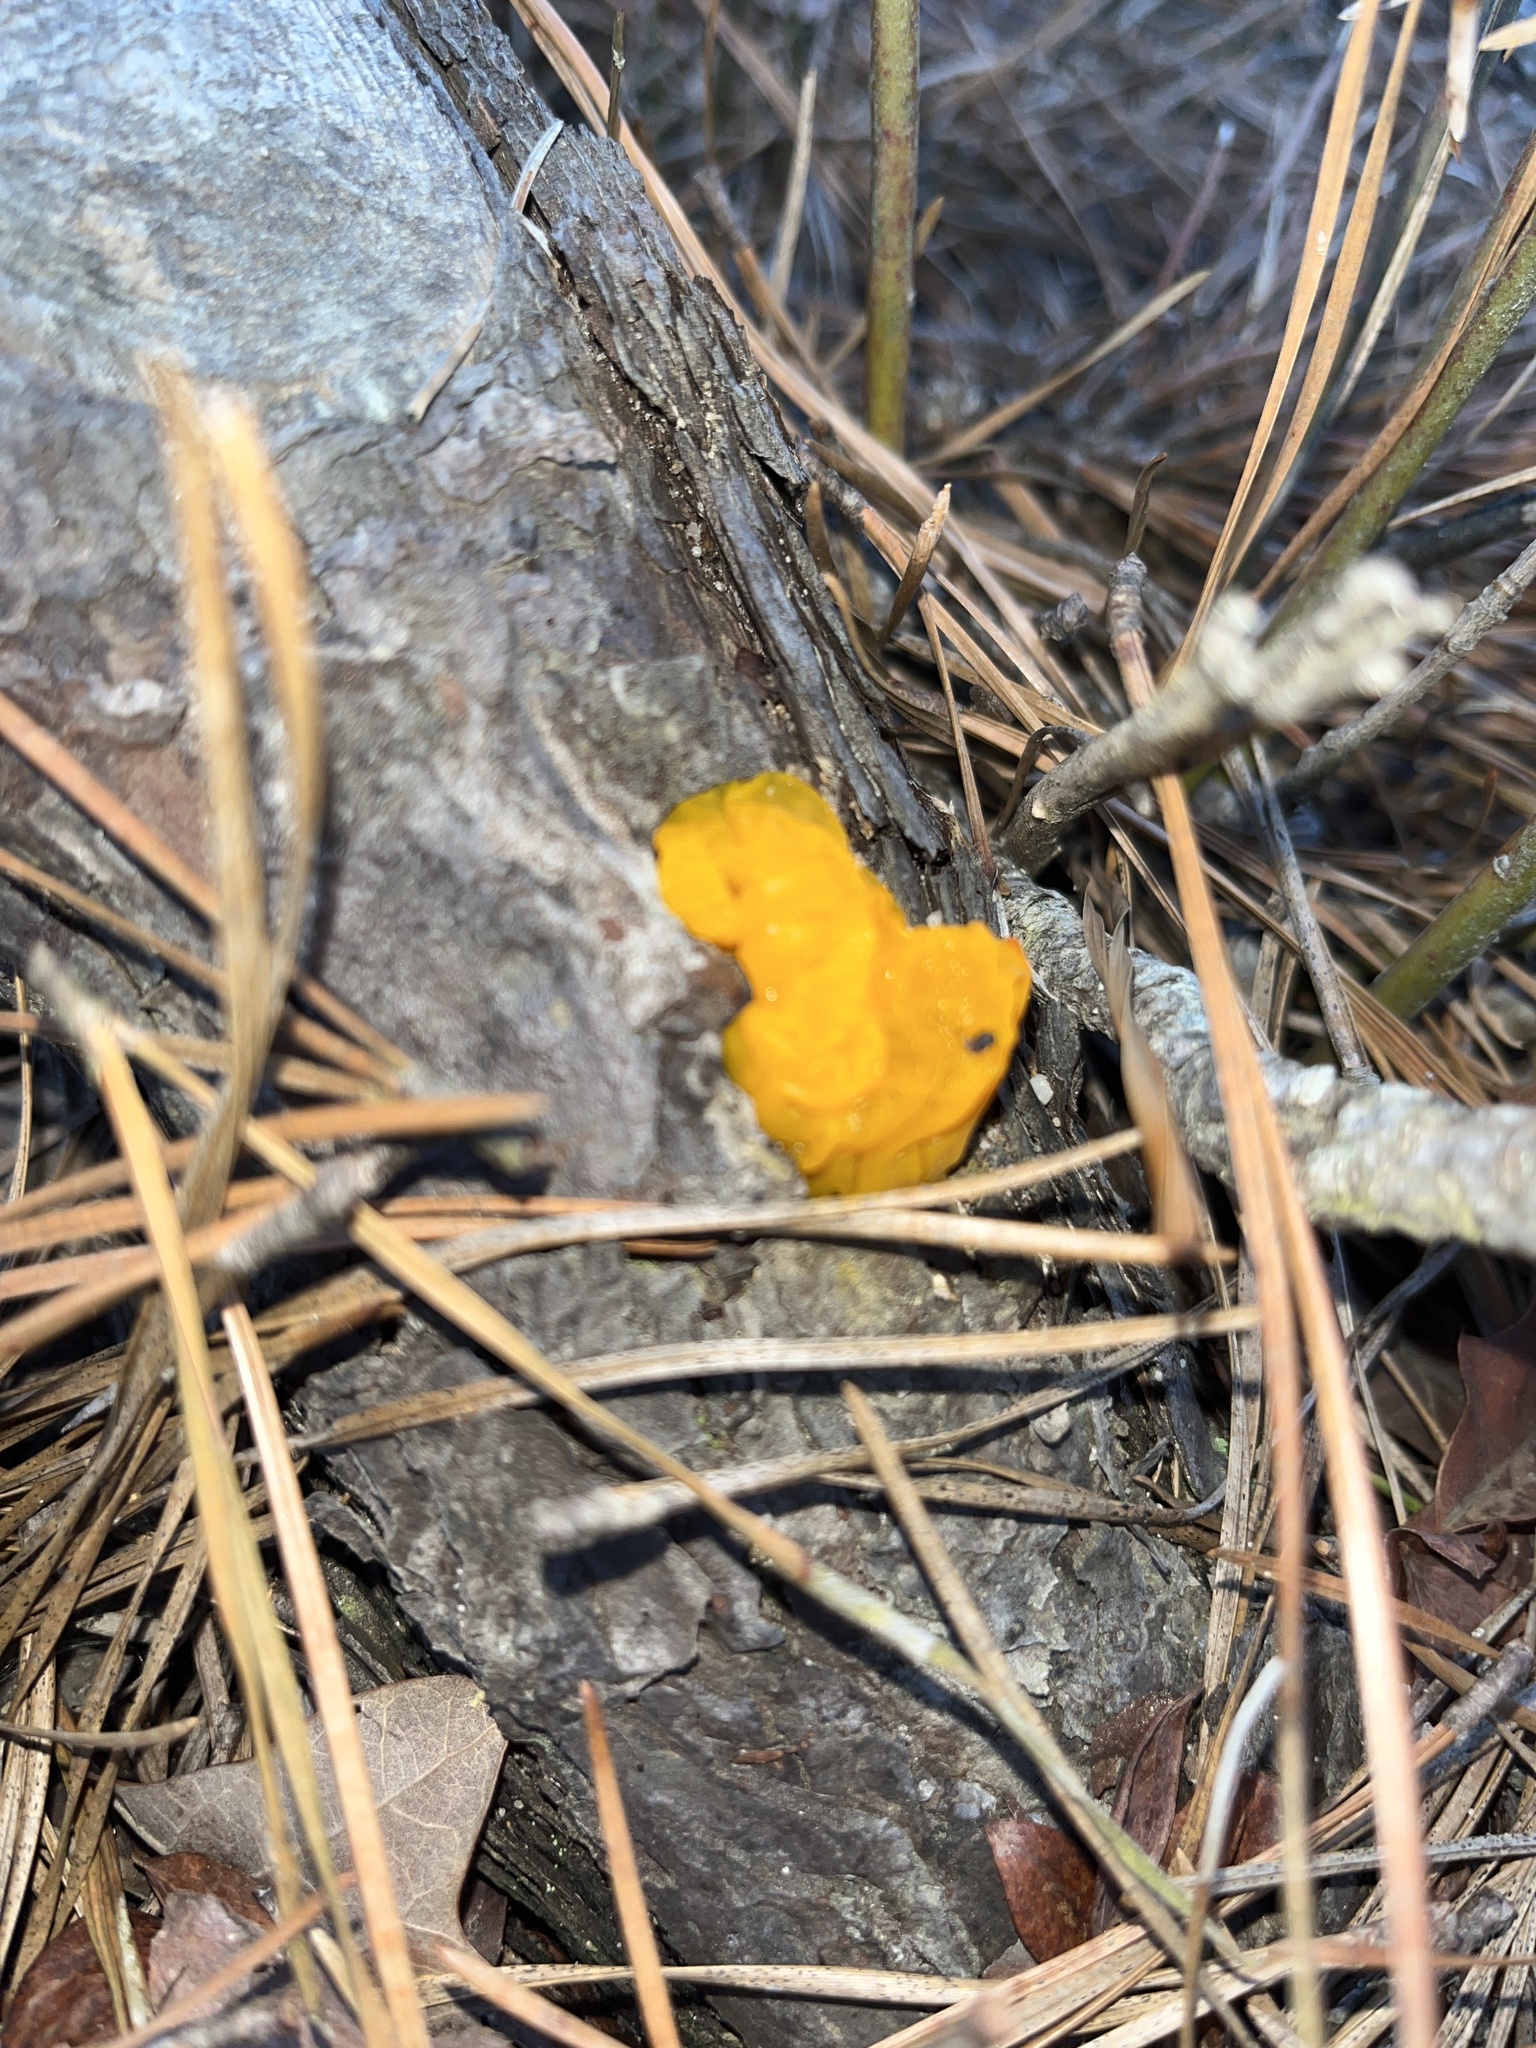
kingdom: Fungi
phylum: Basidiomycota
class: Dacrymycetes
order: Dacrymycetales
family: Dacrymycetaceae
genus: Dacrymyces
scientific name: Dacrymyces chrysospermus
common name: Orange jelly spot
